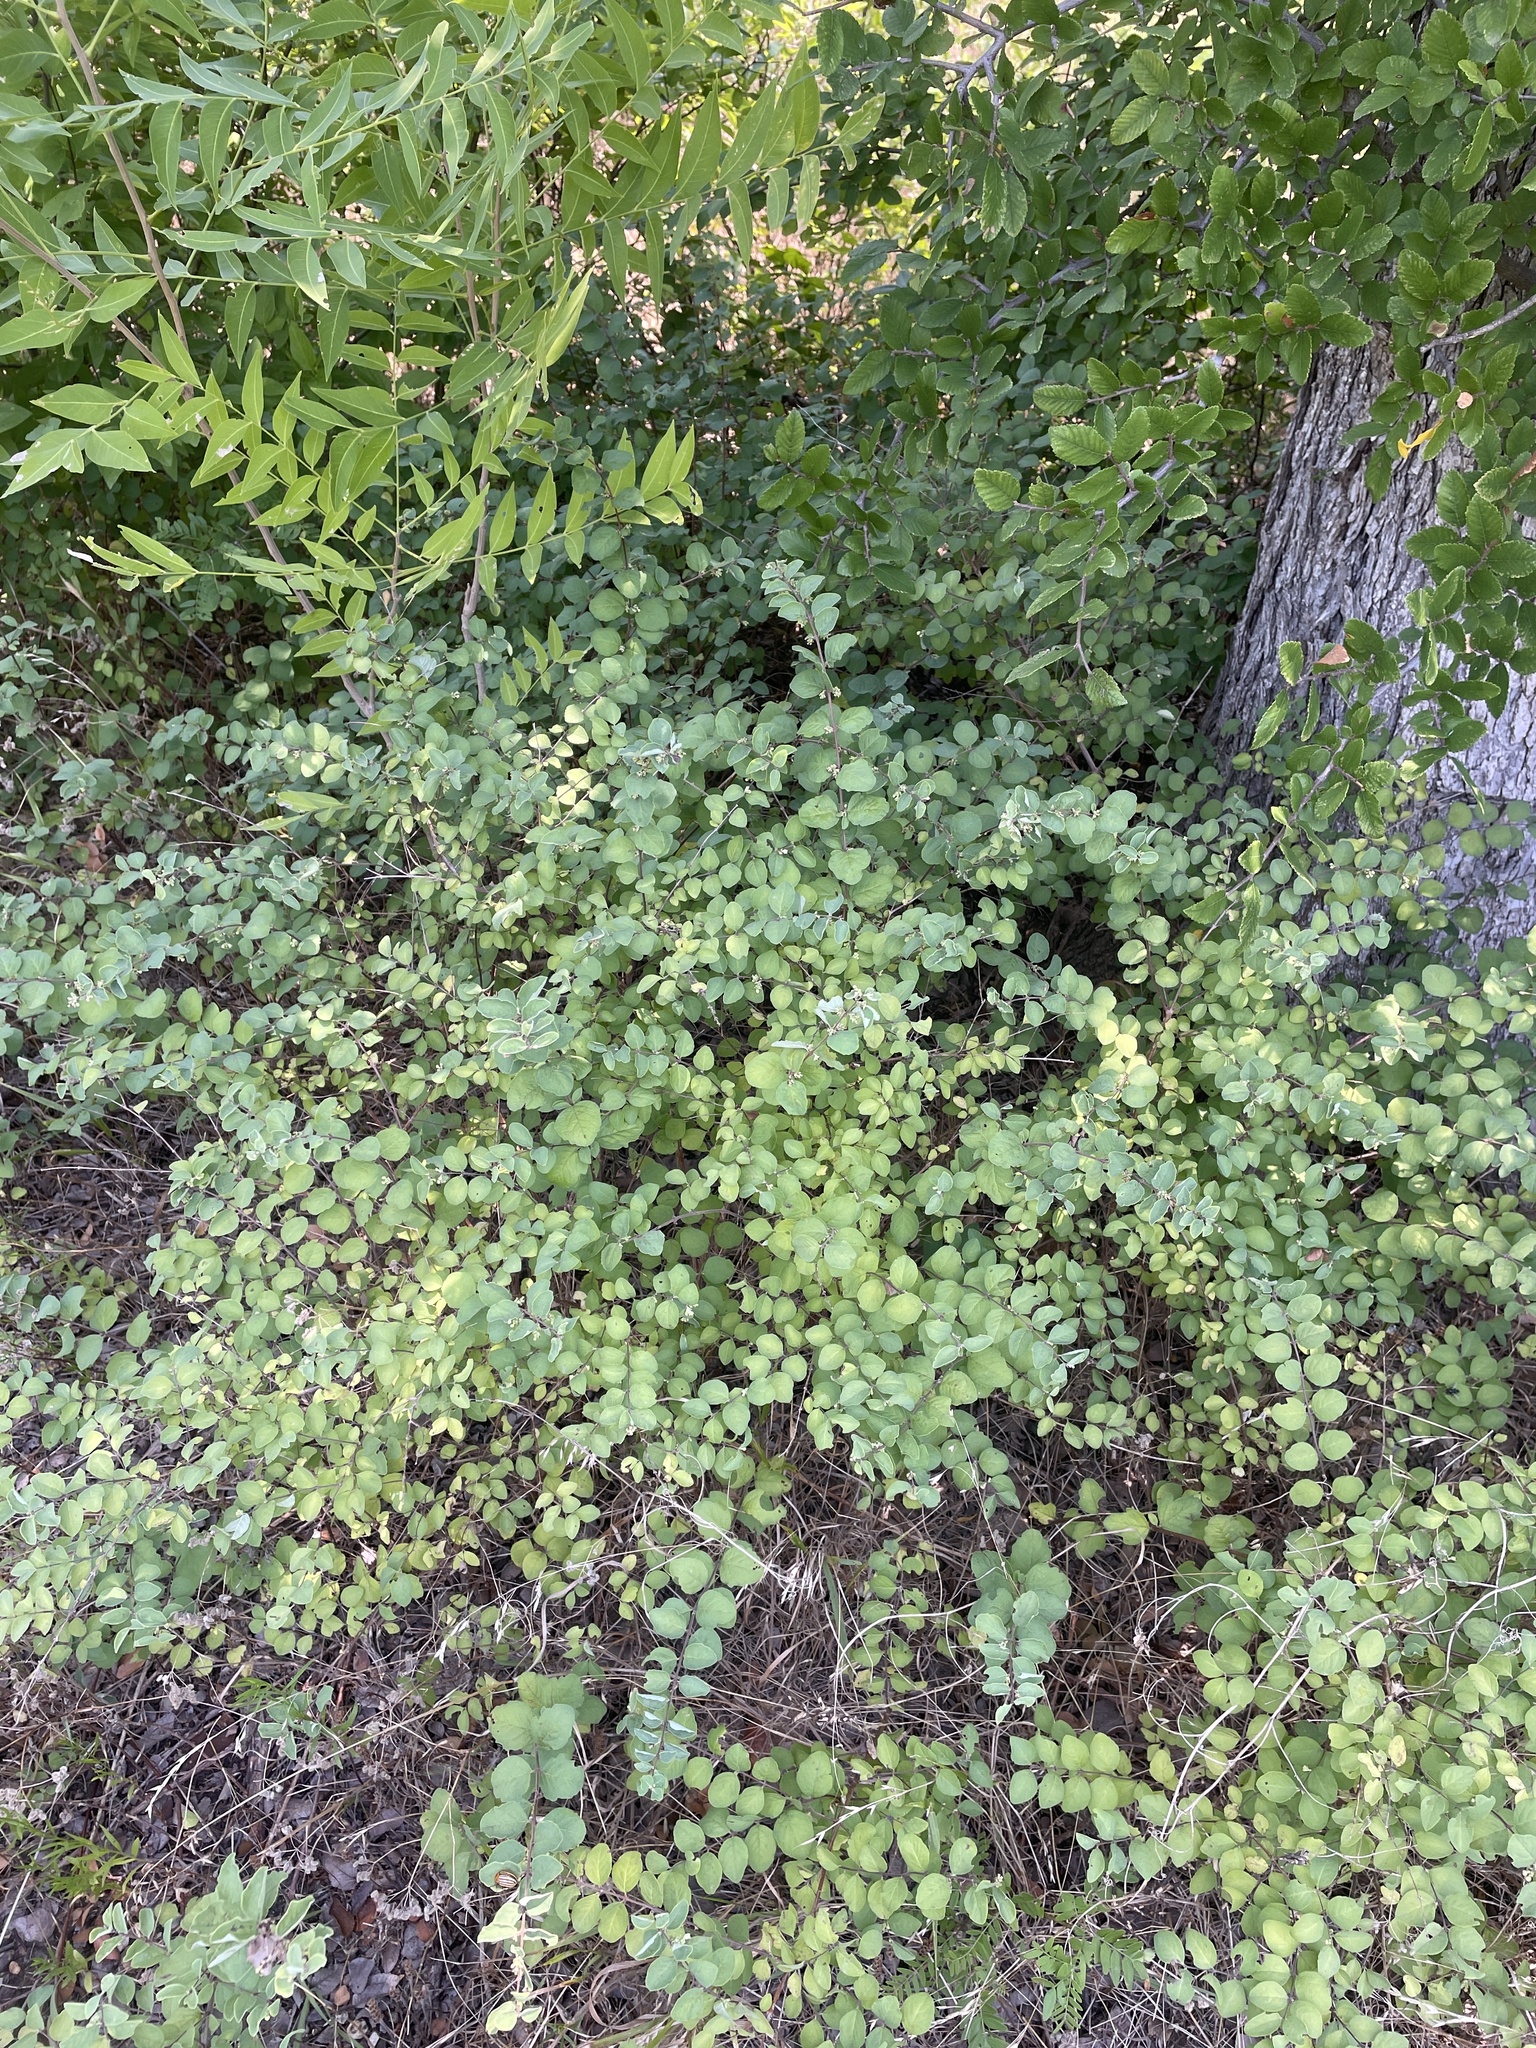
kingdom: Plantae
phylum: Tracheophyta
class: Magnoliopsida
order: Dipsacales
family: Caprifoliaceae
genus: Symphoricarpos
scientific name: Symphoricarpos orbiculatus
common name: Coralberry
